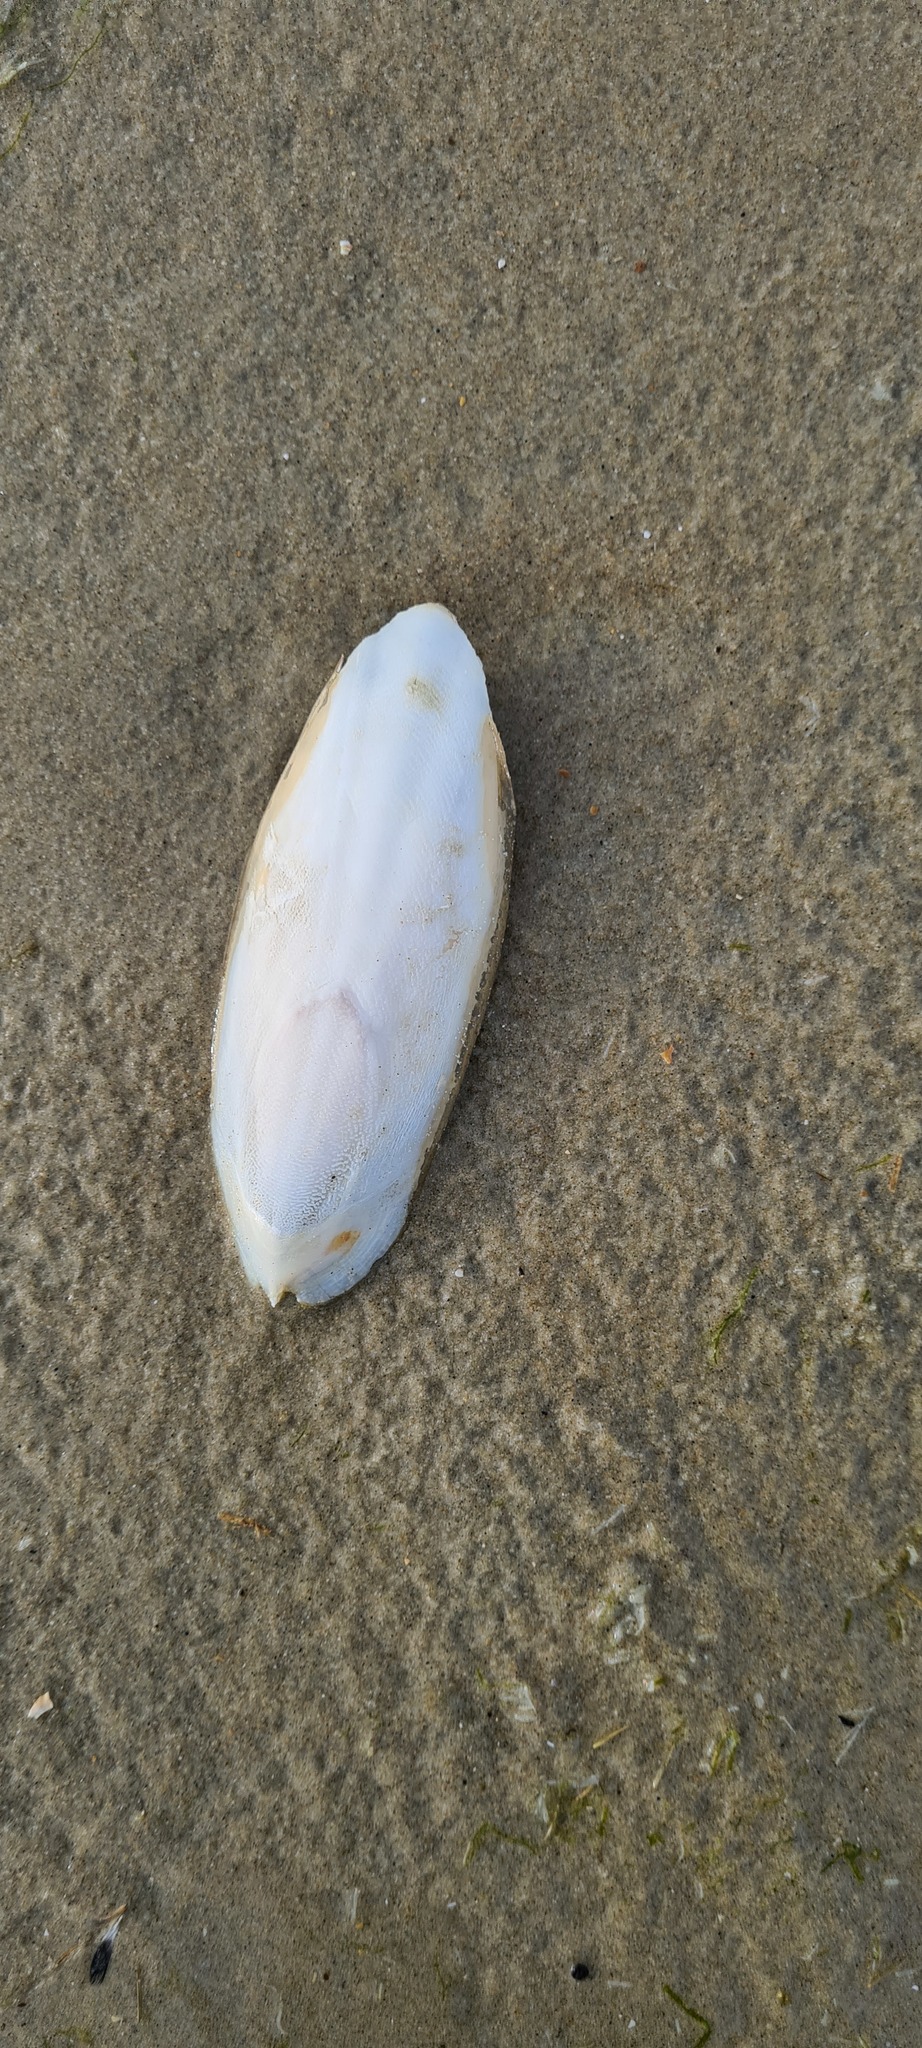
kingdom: Animalia
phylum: Mollusca
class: Cephalopoda
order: Sepiida
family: Sepiidae
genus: Sepia
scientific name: Sepia officinalis
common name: Common cuttlefish
